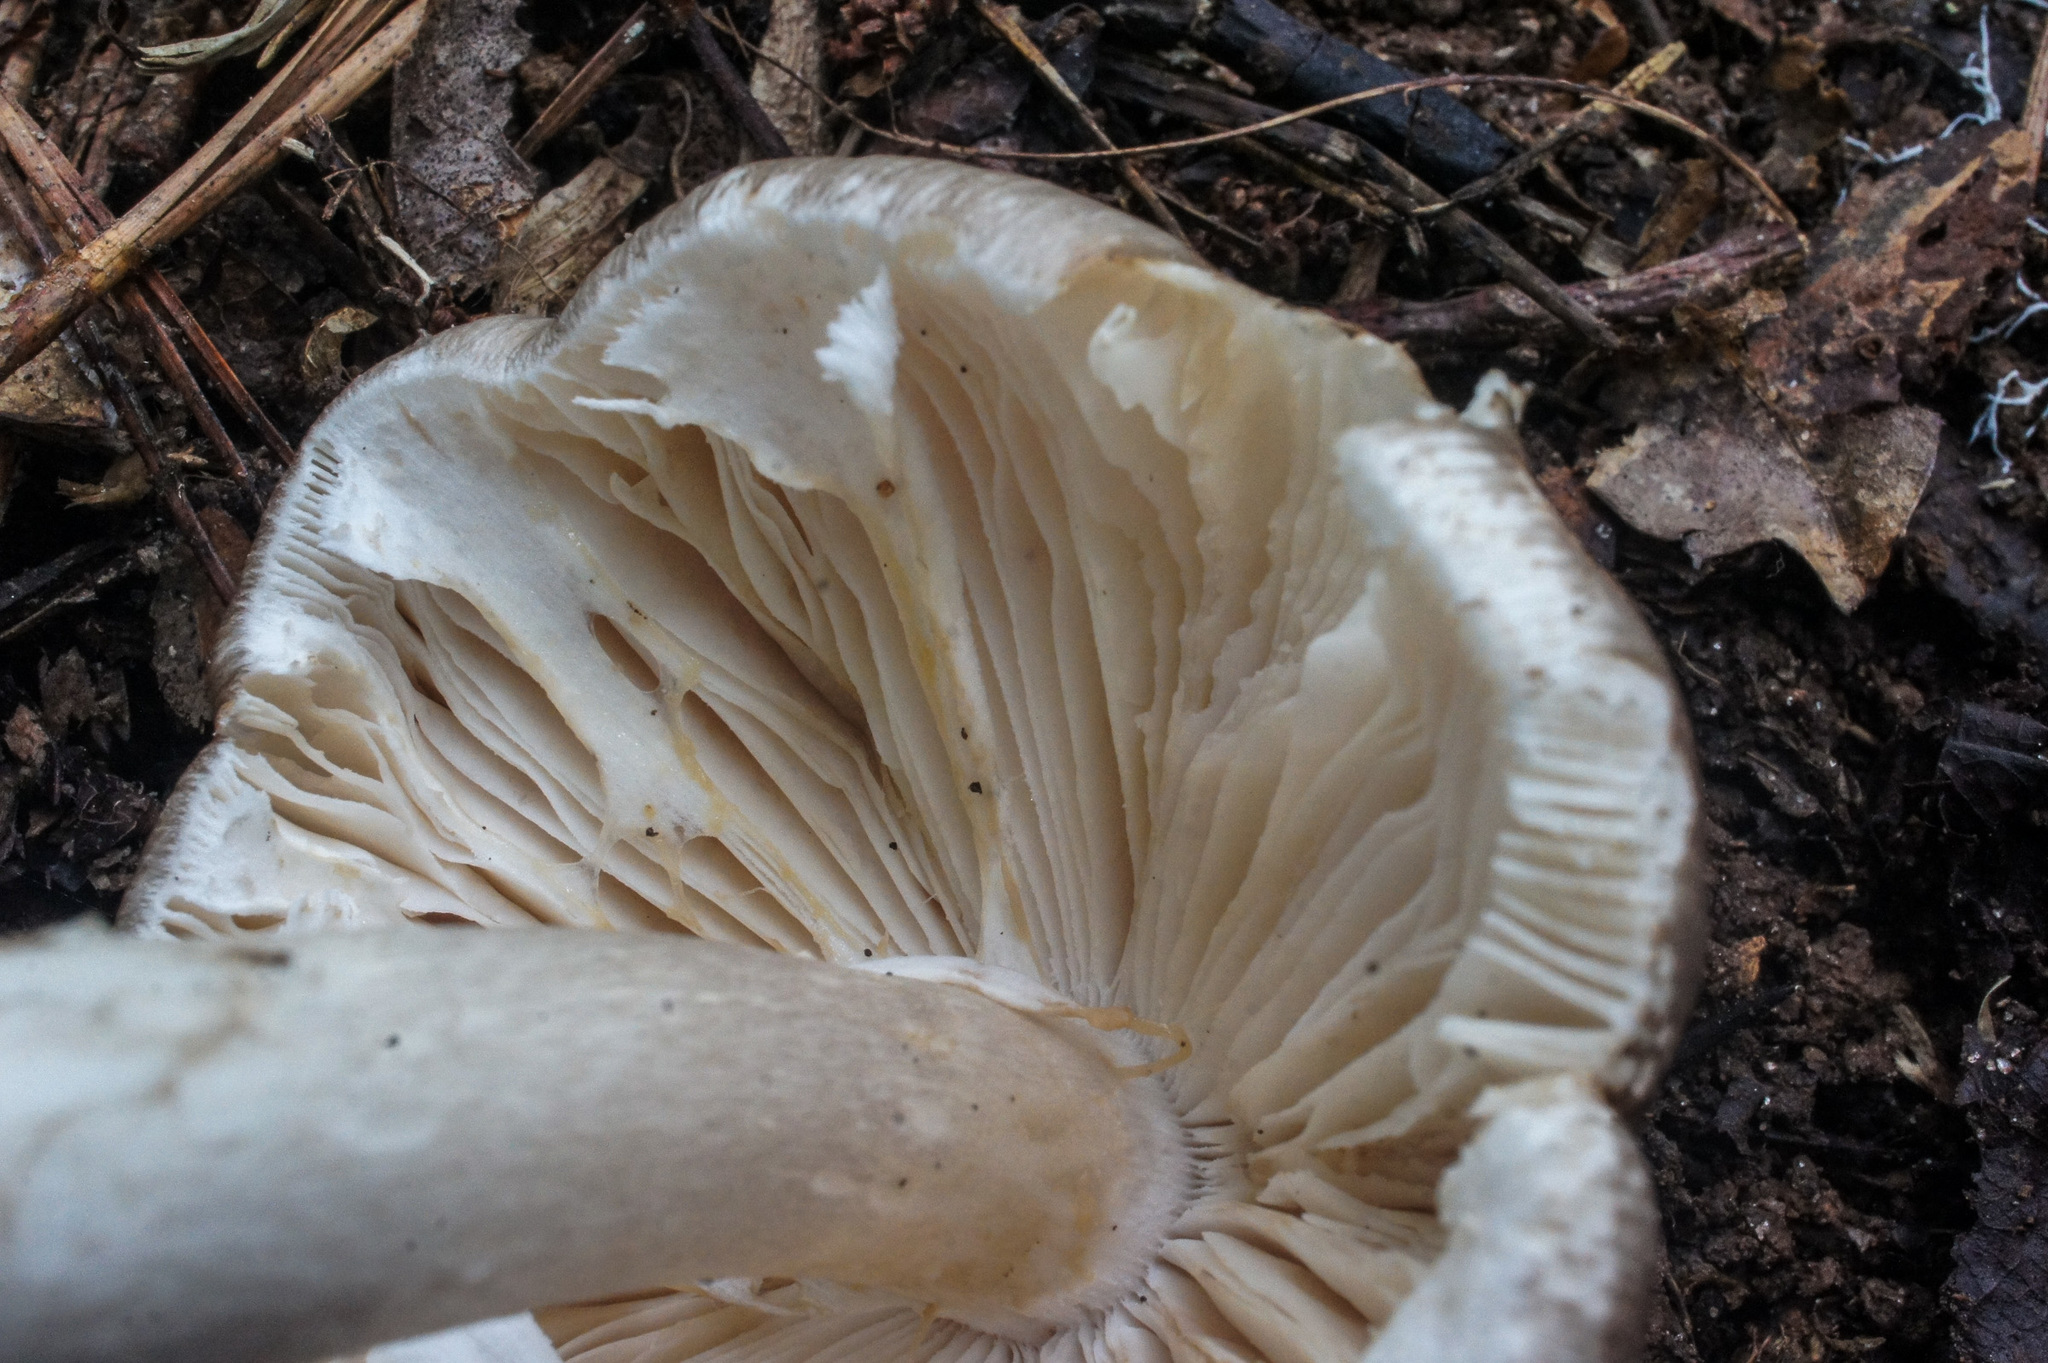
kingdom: Fungi
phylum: Basidiomycota
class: Agaricomycetes
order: Agaricales
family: Amanitaceae
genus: Amanita
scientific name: Amanita submaculata
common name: Ball gown amanita
